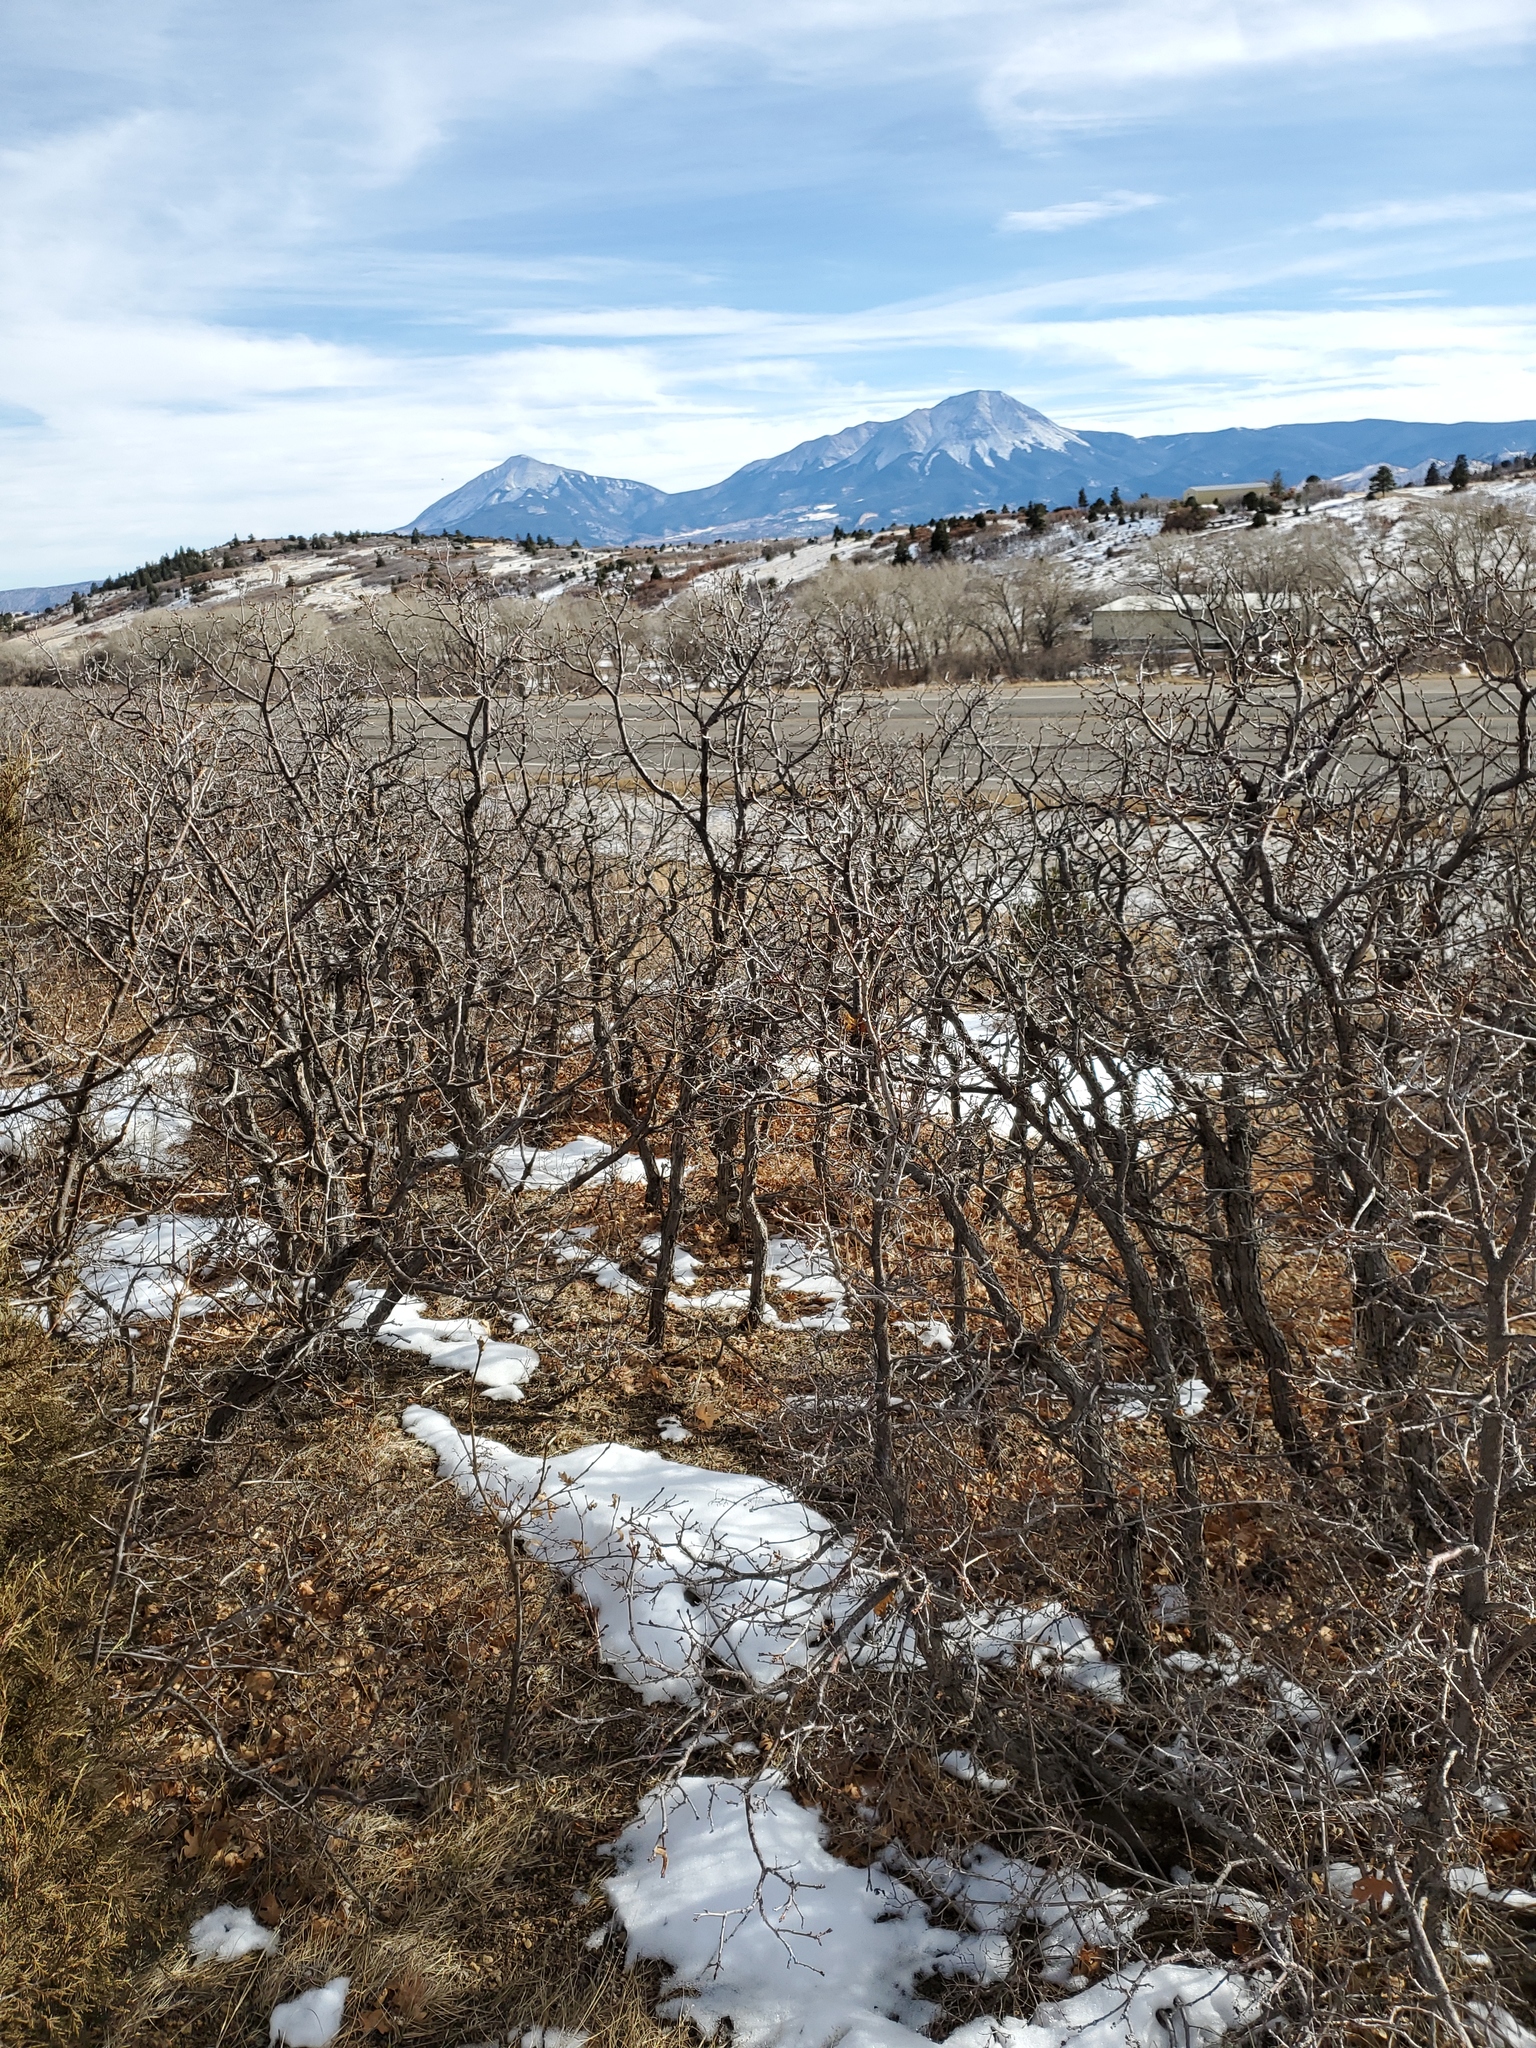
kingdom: Plantae
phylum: Tracheophyta
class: Magnoliopsida
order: Fagales
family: Fagaceae
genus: Quercus
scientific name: Quercus gambelii
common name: Gambel oak
